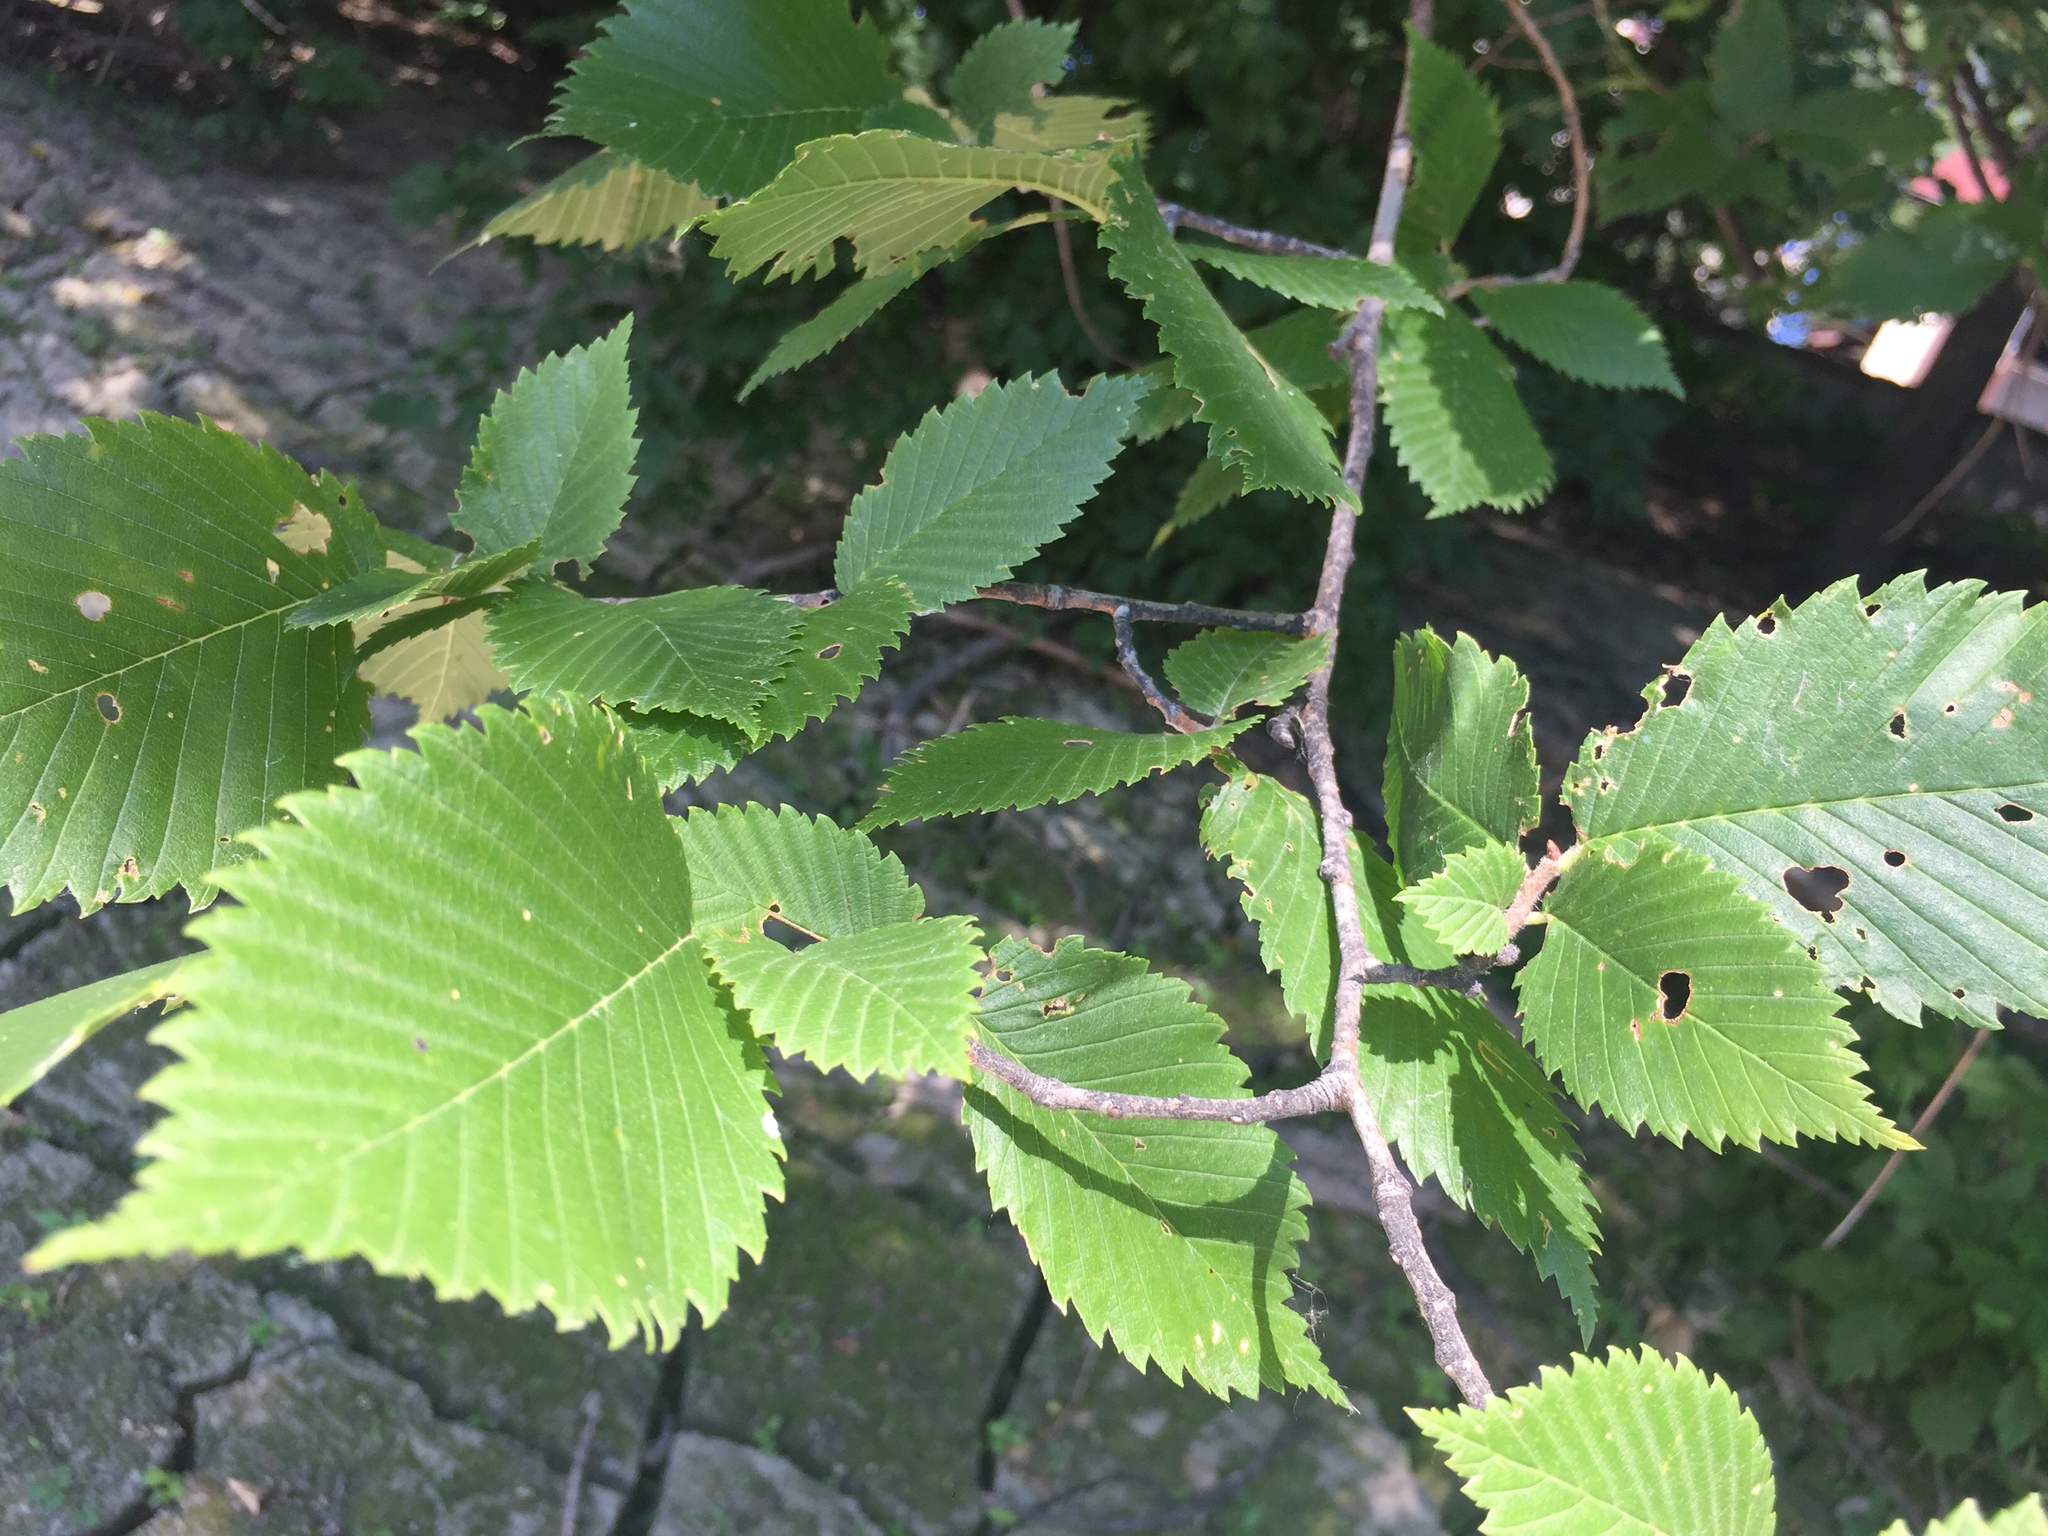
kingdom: Plantae
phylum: Tracheophyta
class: Magnoliopsida
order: Rosales
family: Ulmaceae
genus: Ulmus
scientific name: Ulmus americana
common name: American elm
